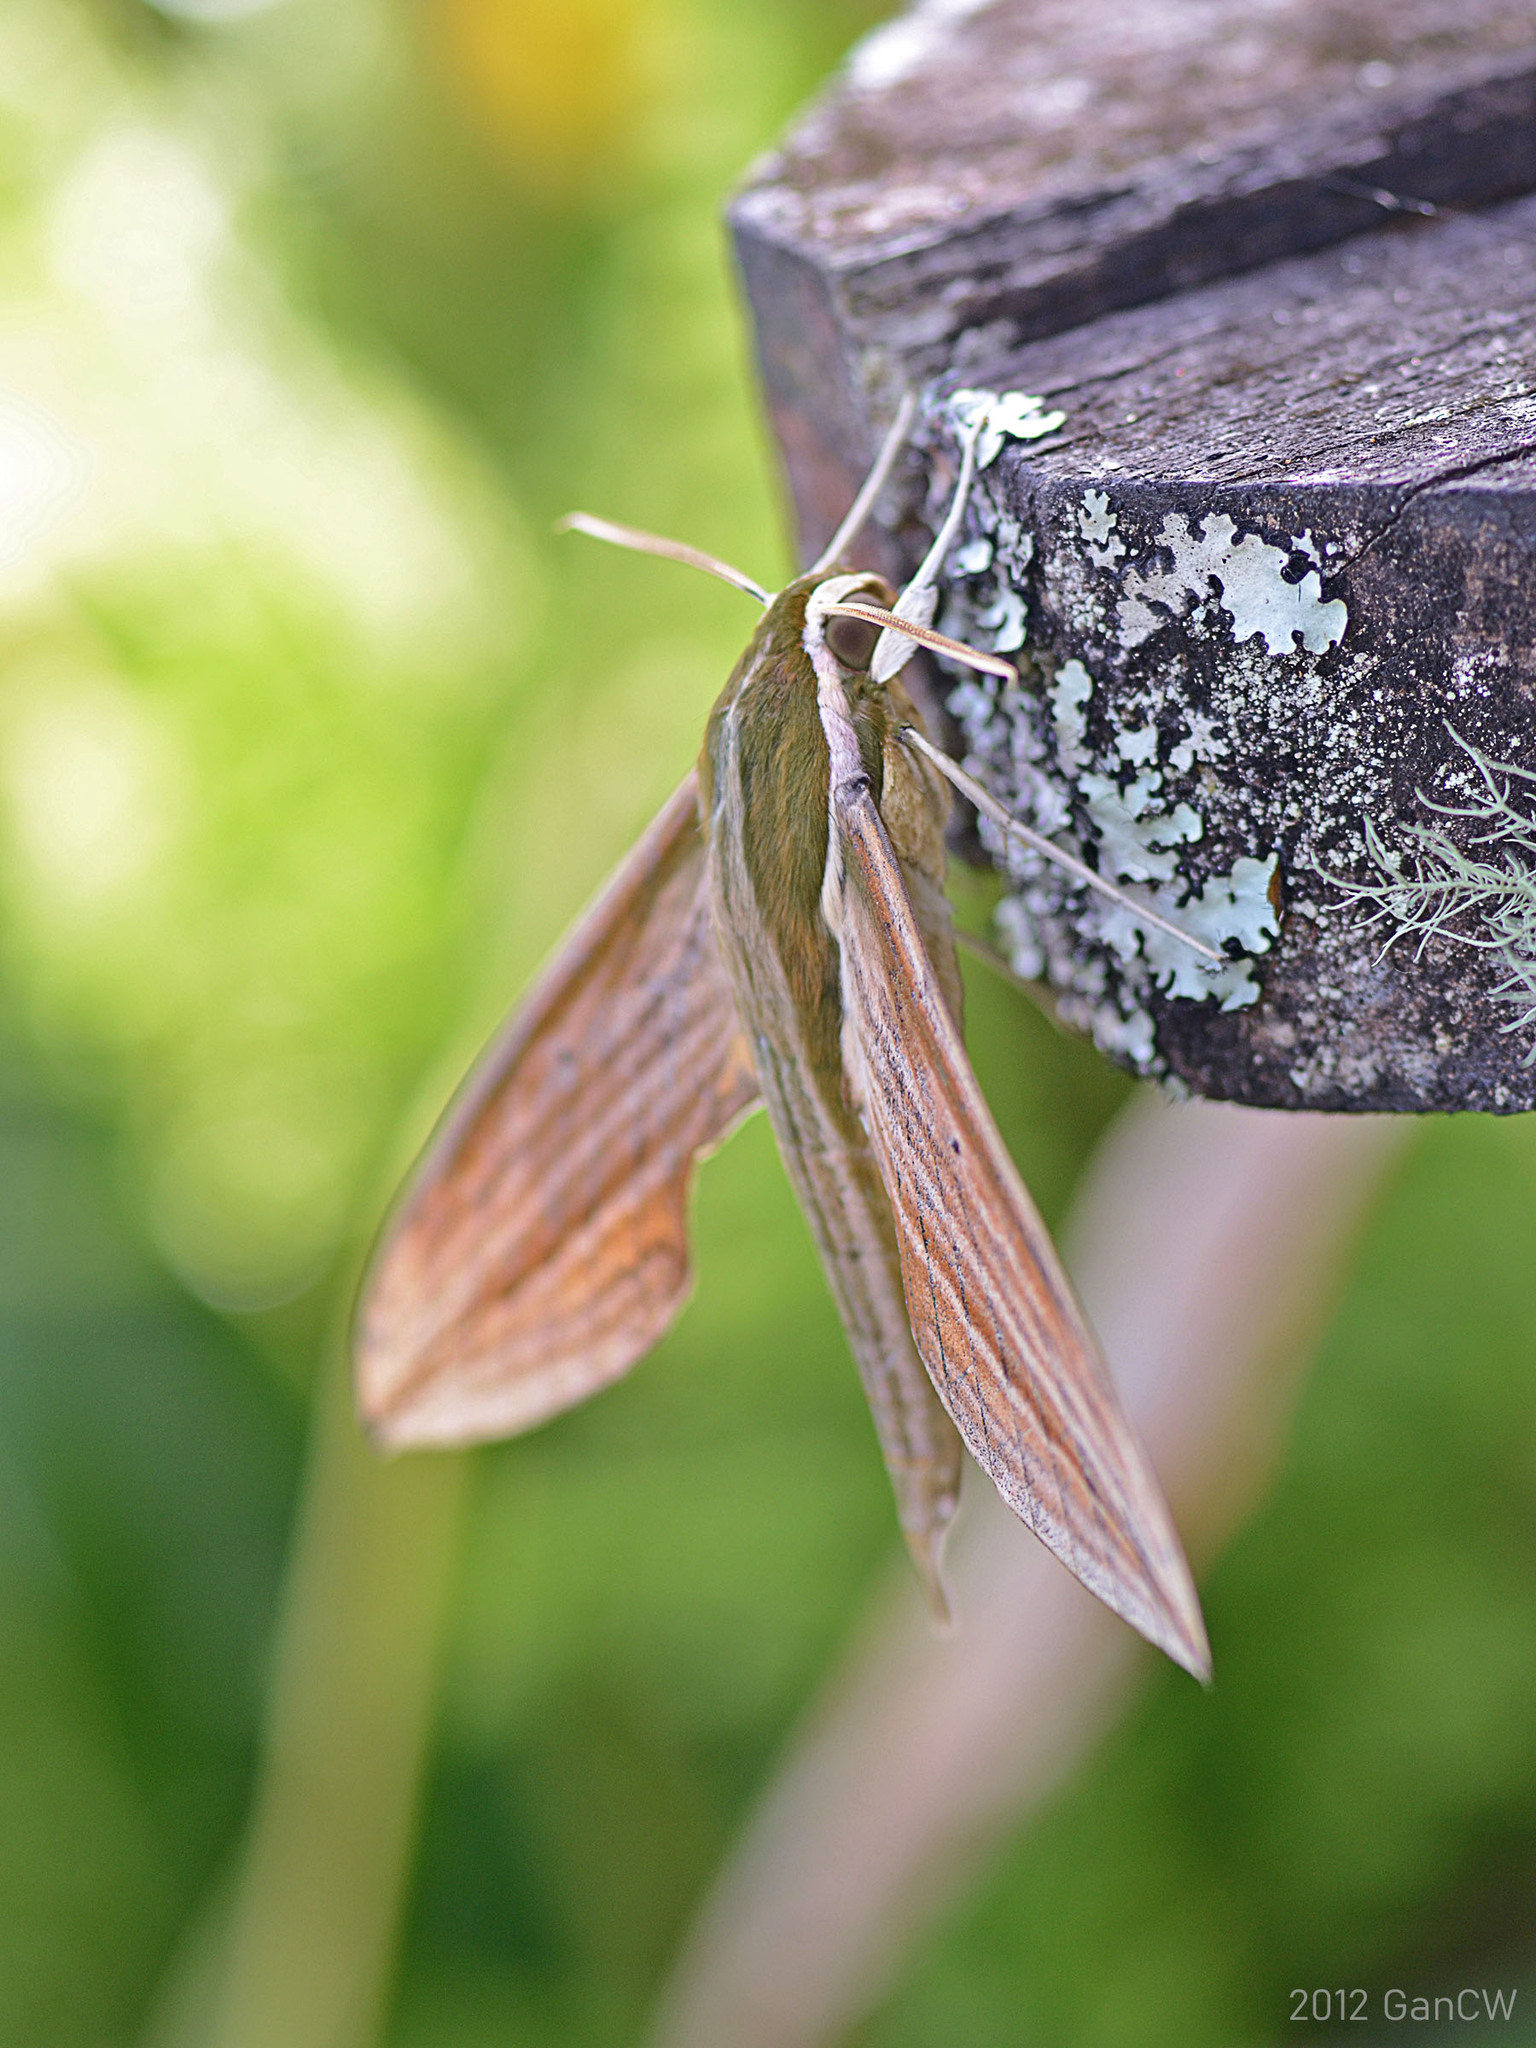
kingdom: Animalia
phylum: Arthropoda
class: Insecta
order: Lepidoptera
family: Sphingidae
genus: Cechetra
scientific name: Cechetra lineosa
